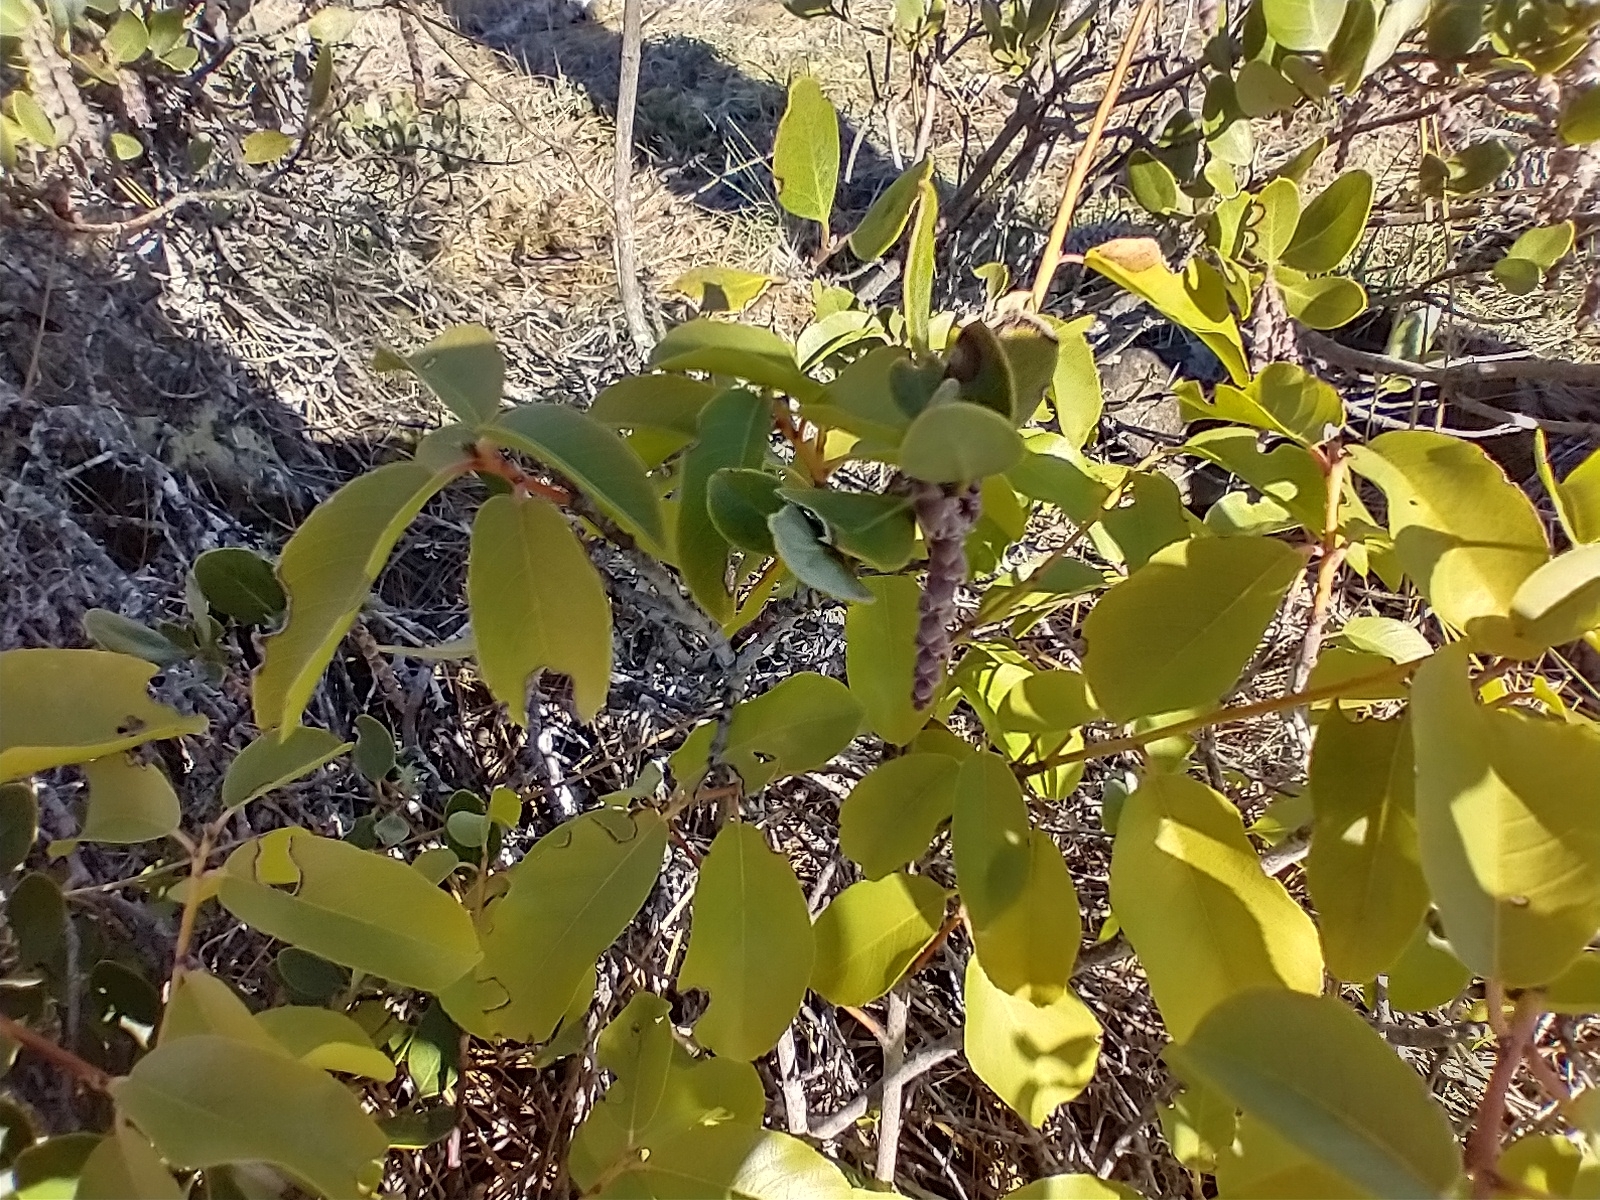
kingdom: Plantae
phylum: Tracheophyta
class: Magnoliopsida
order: Rosales
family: Rhamnaceae
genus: Frangula
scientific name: Frangula californica
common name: California buckthorn
